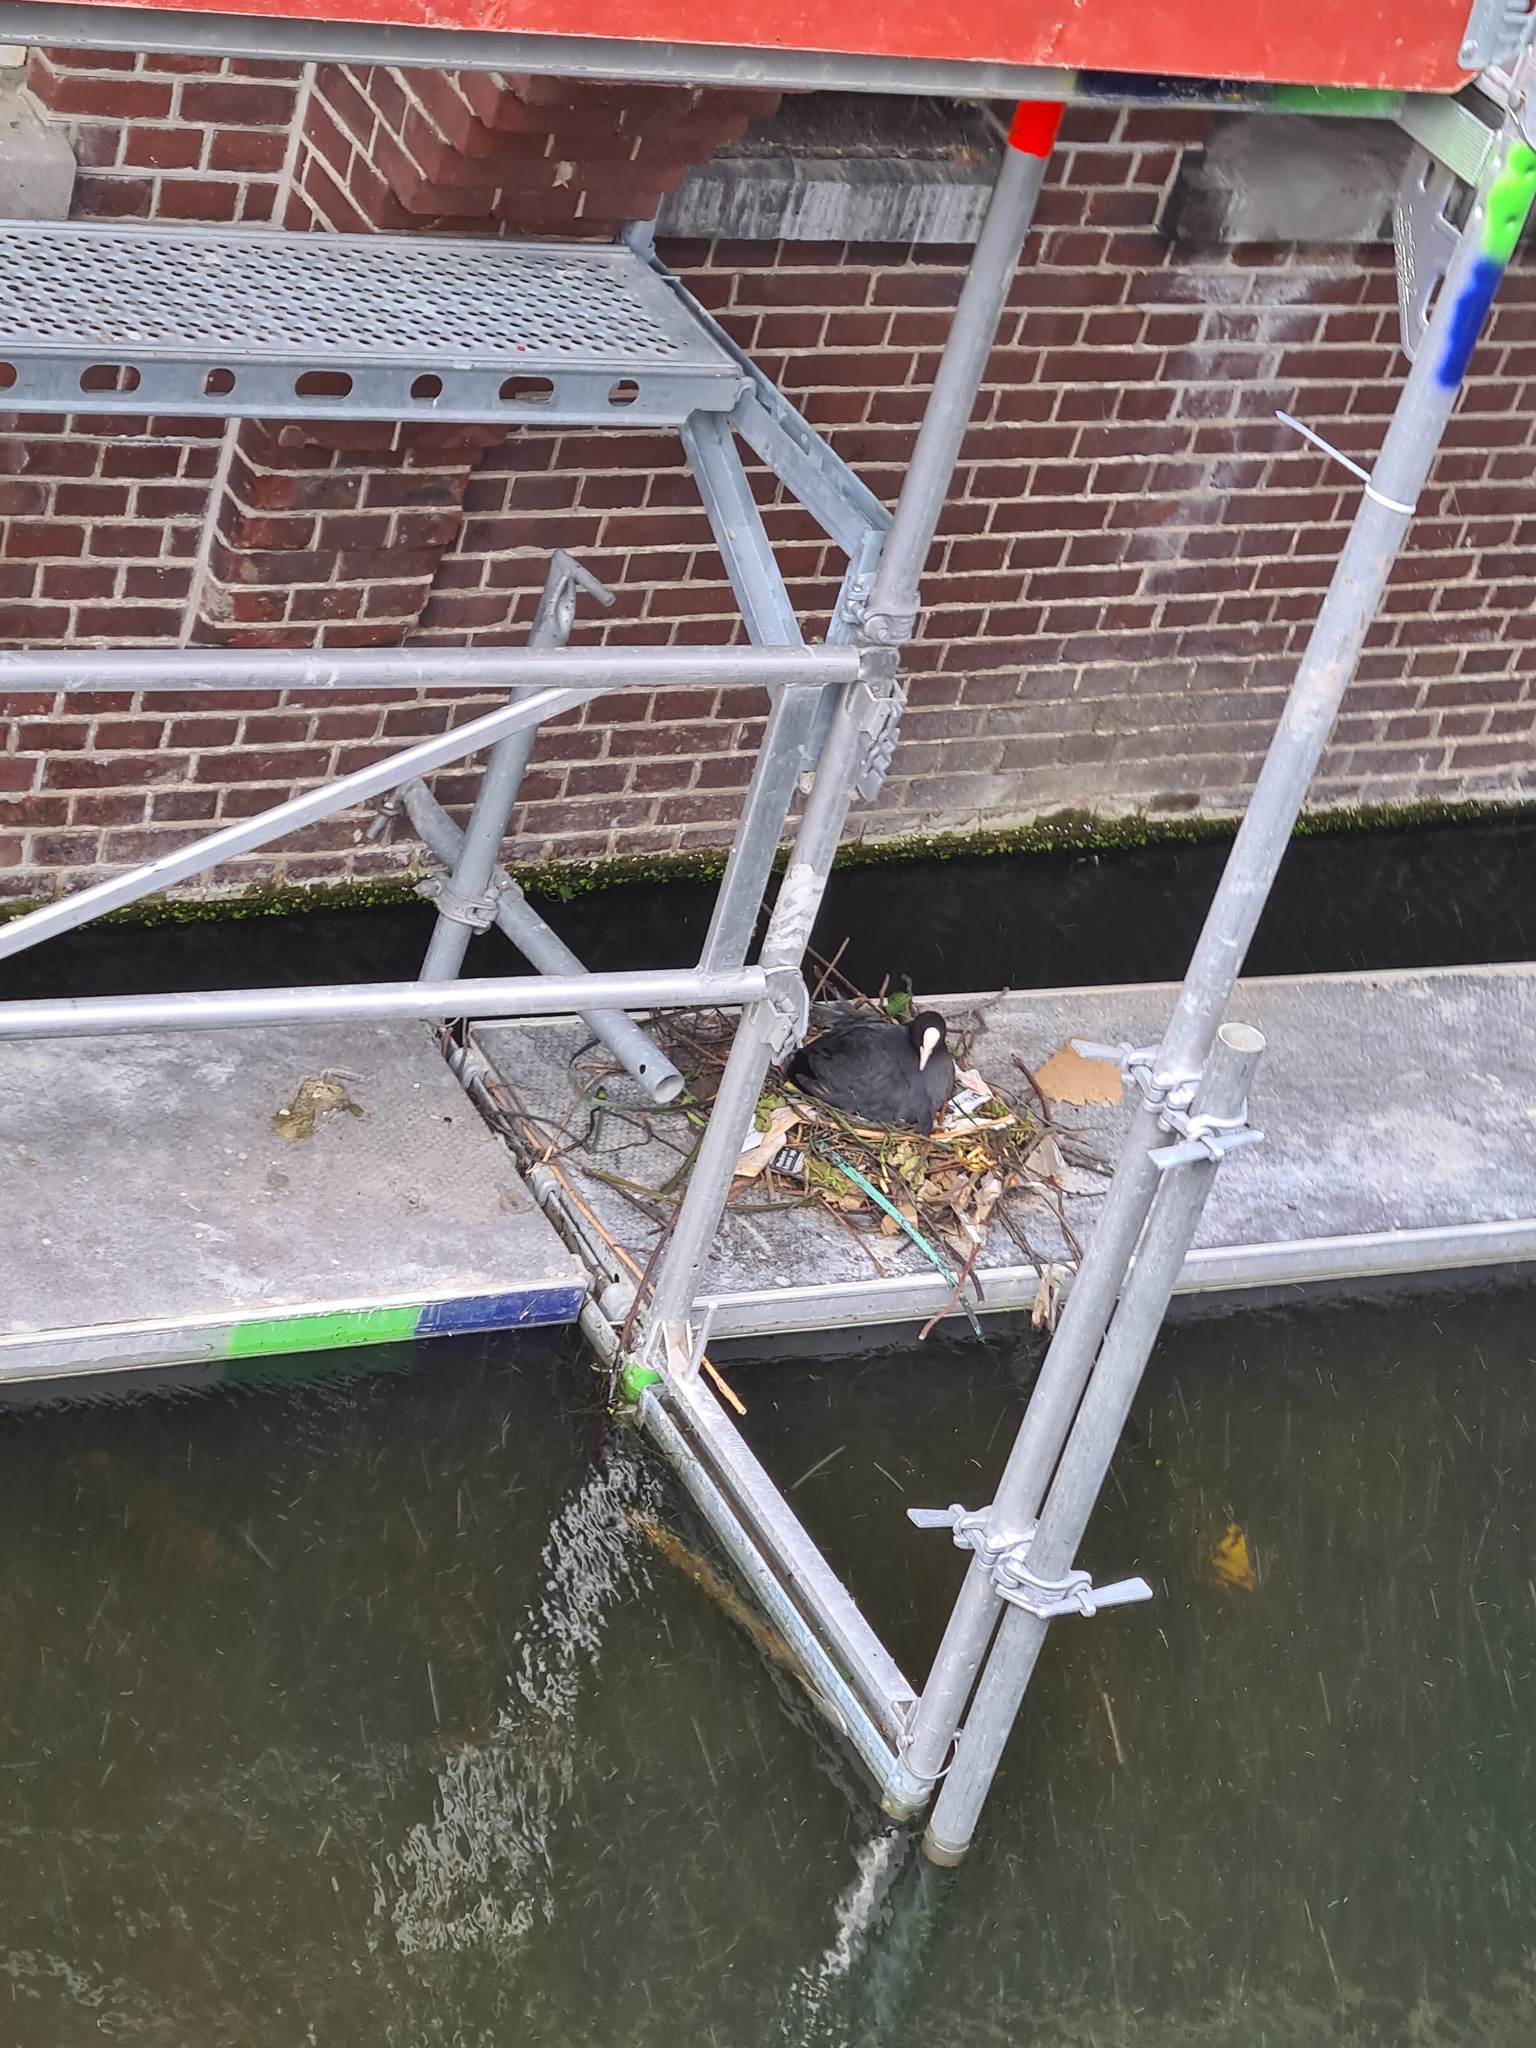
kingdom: Animalia
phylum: Chordata
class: Aves
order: Gruiformes
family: Rallidae
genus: Fulica
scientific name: Fulica atra
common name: Eurasian coot
